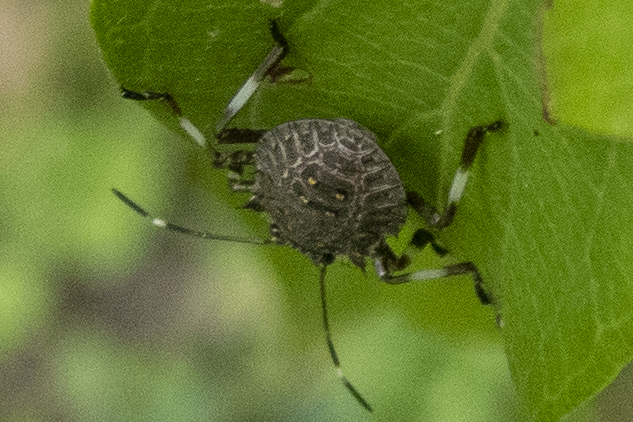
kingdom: Animalia
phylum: Arthropoda
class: Insecta
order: Hemiptera
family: Pentatomidae
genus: Halyomorpha
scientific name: Halyomorpha halys
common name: Brown marmorated stink bug
